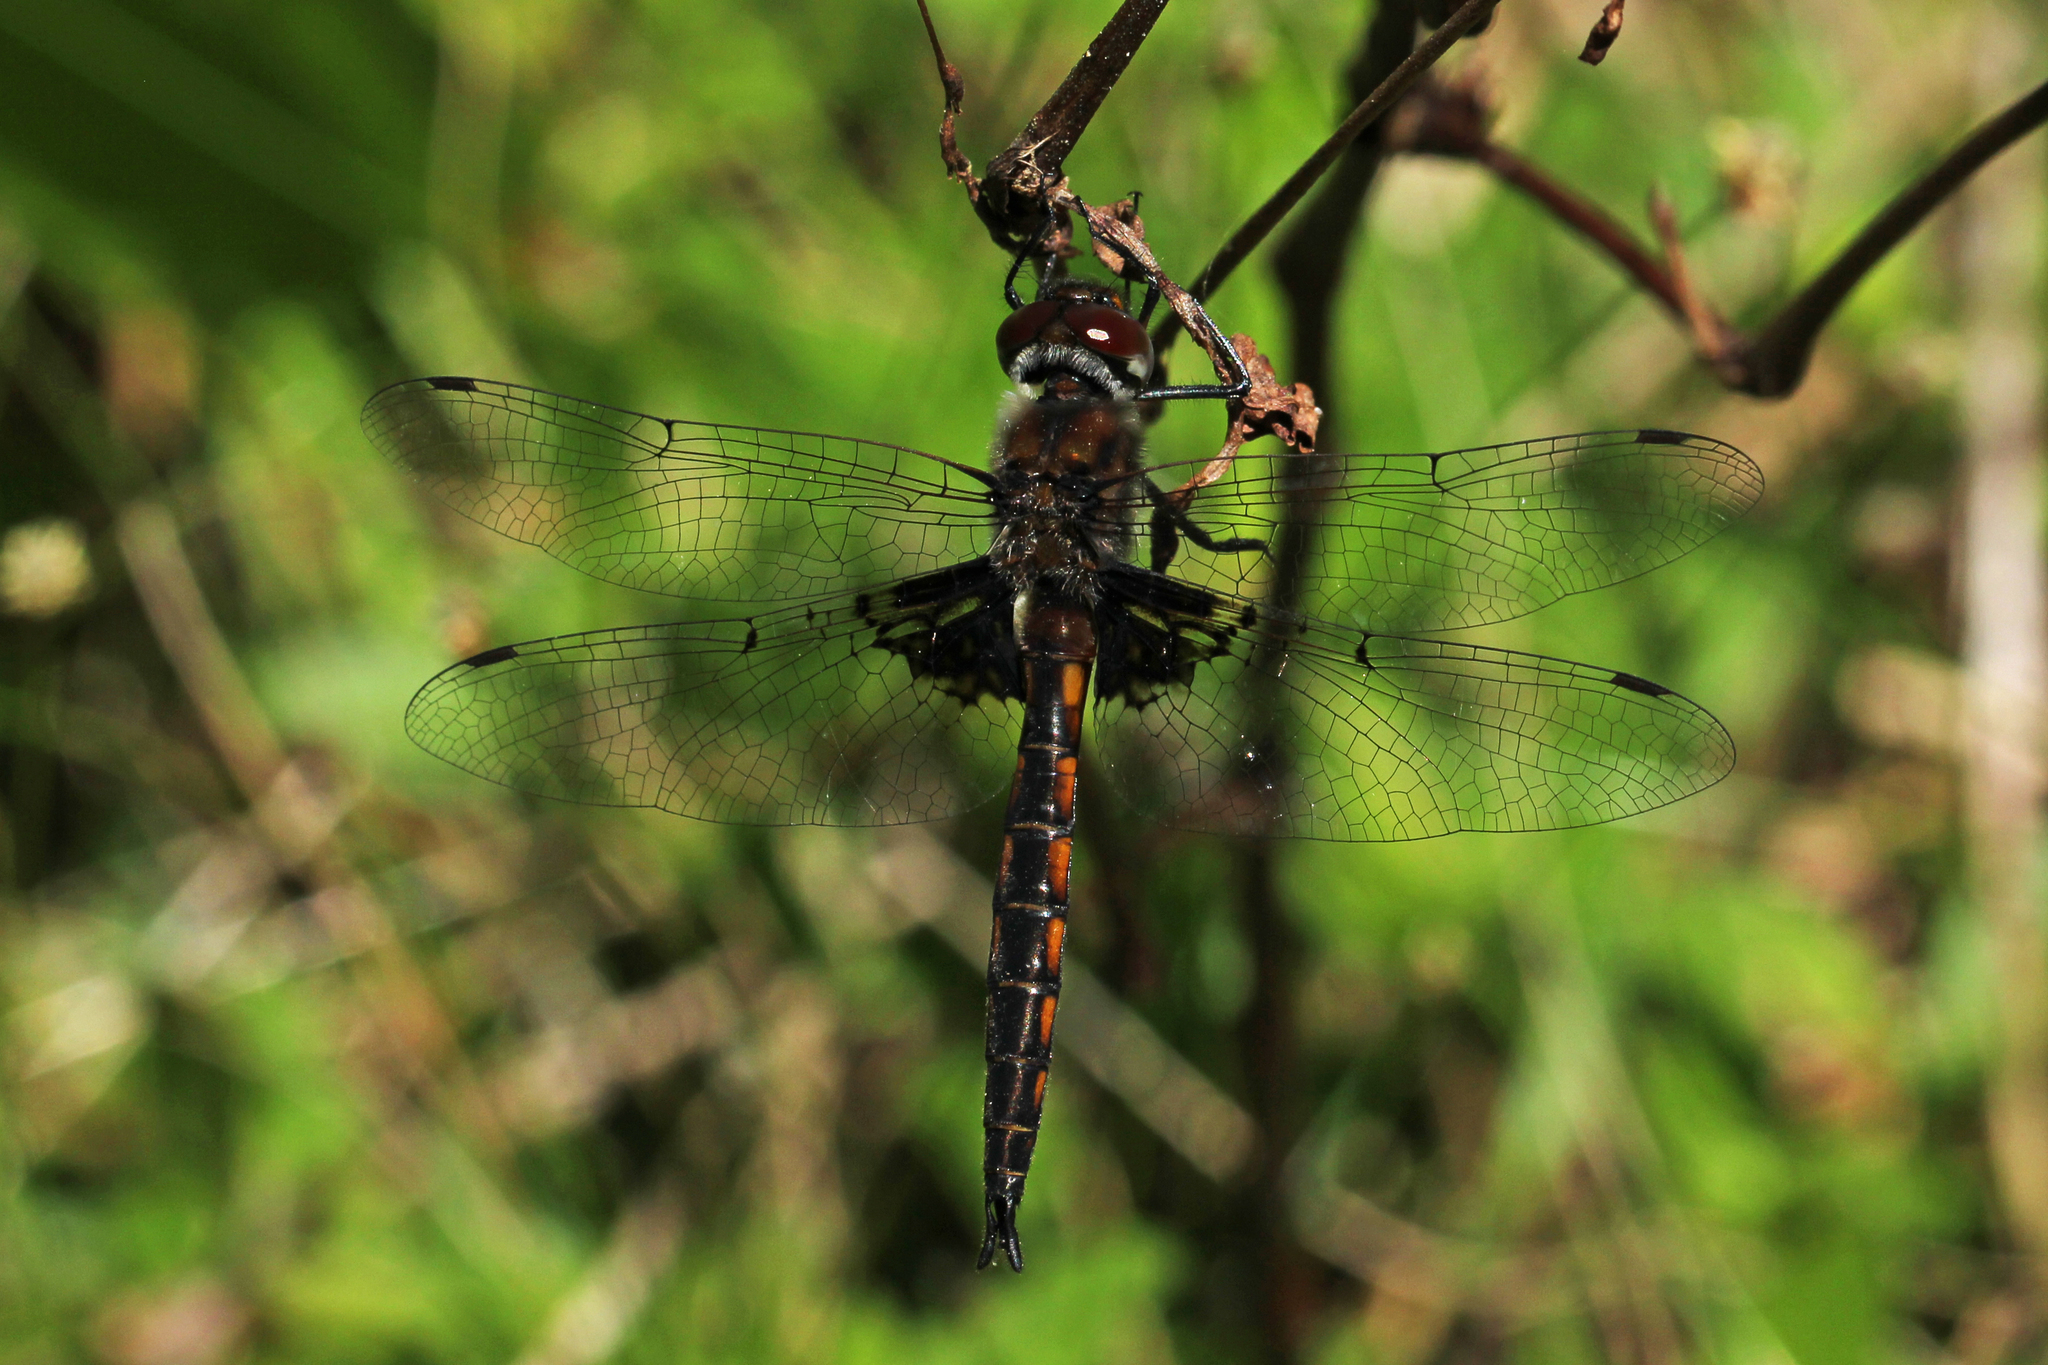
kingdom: Animalia
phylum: Arthropoda
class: Insecta
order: Odonata
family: Corduliidae
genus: Epitheca
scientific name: Epitheca cynosura
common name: Common baskettail
